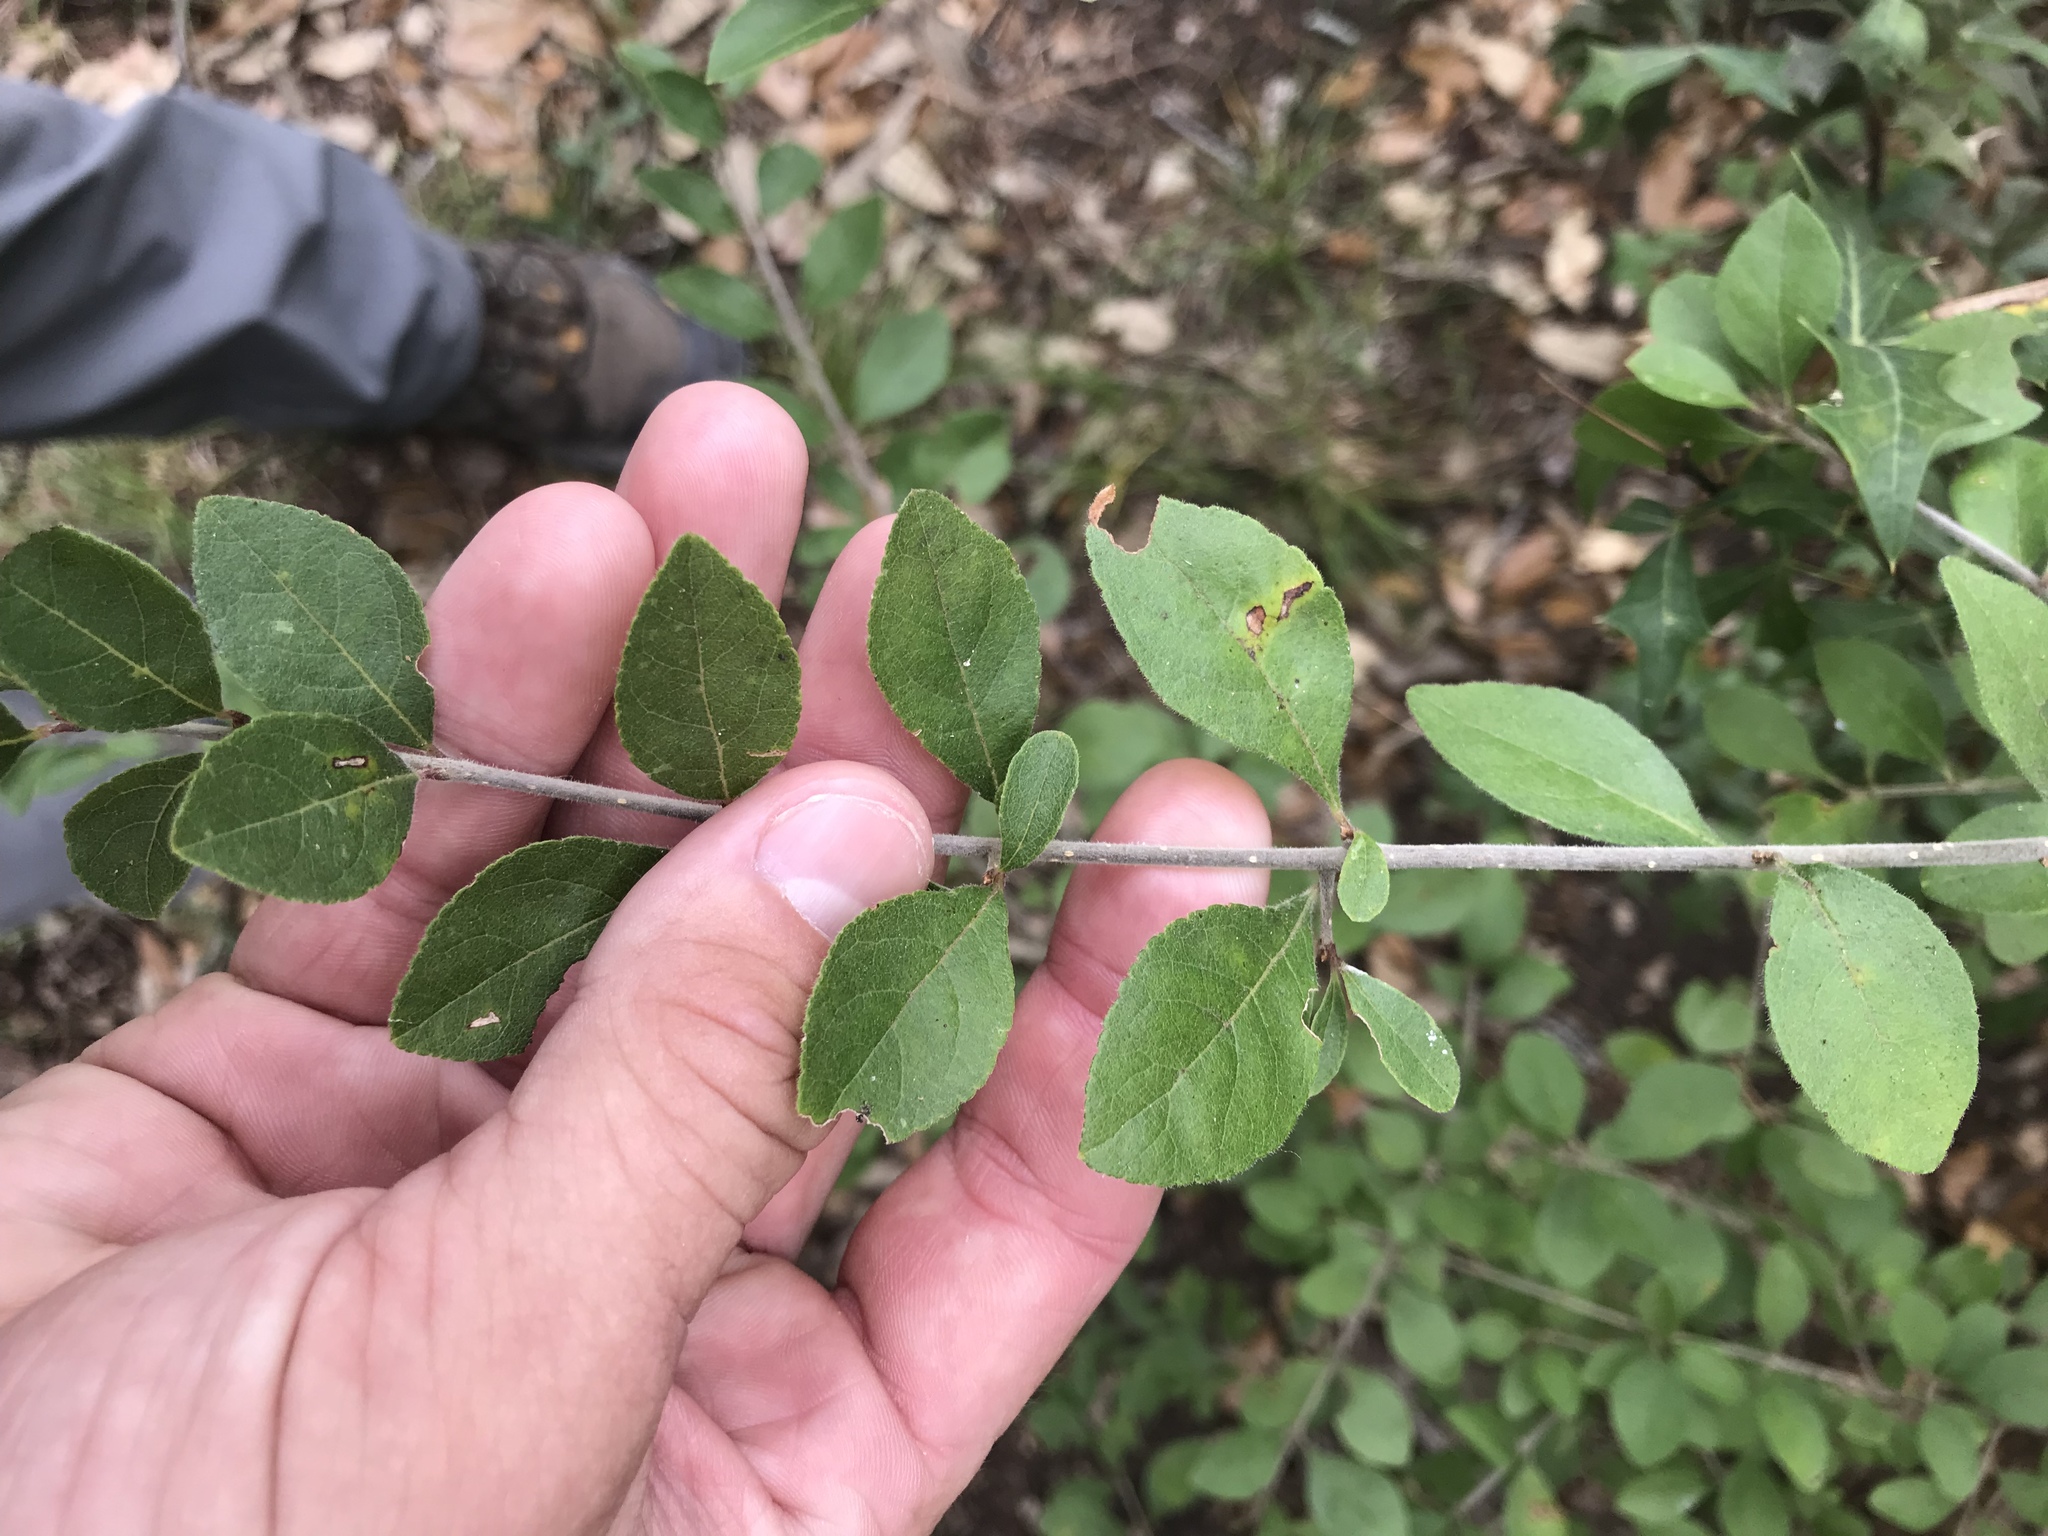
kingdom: Plantae
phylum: Tracheophyta
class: Magnoliopsida
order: Lamiales
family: Oleaceae
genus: Forestiera
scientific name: Forestiera pubescens
